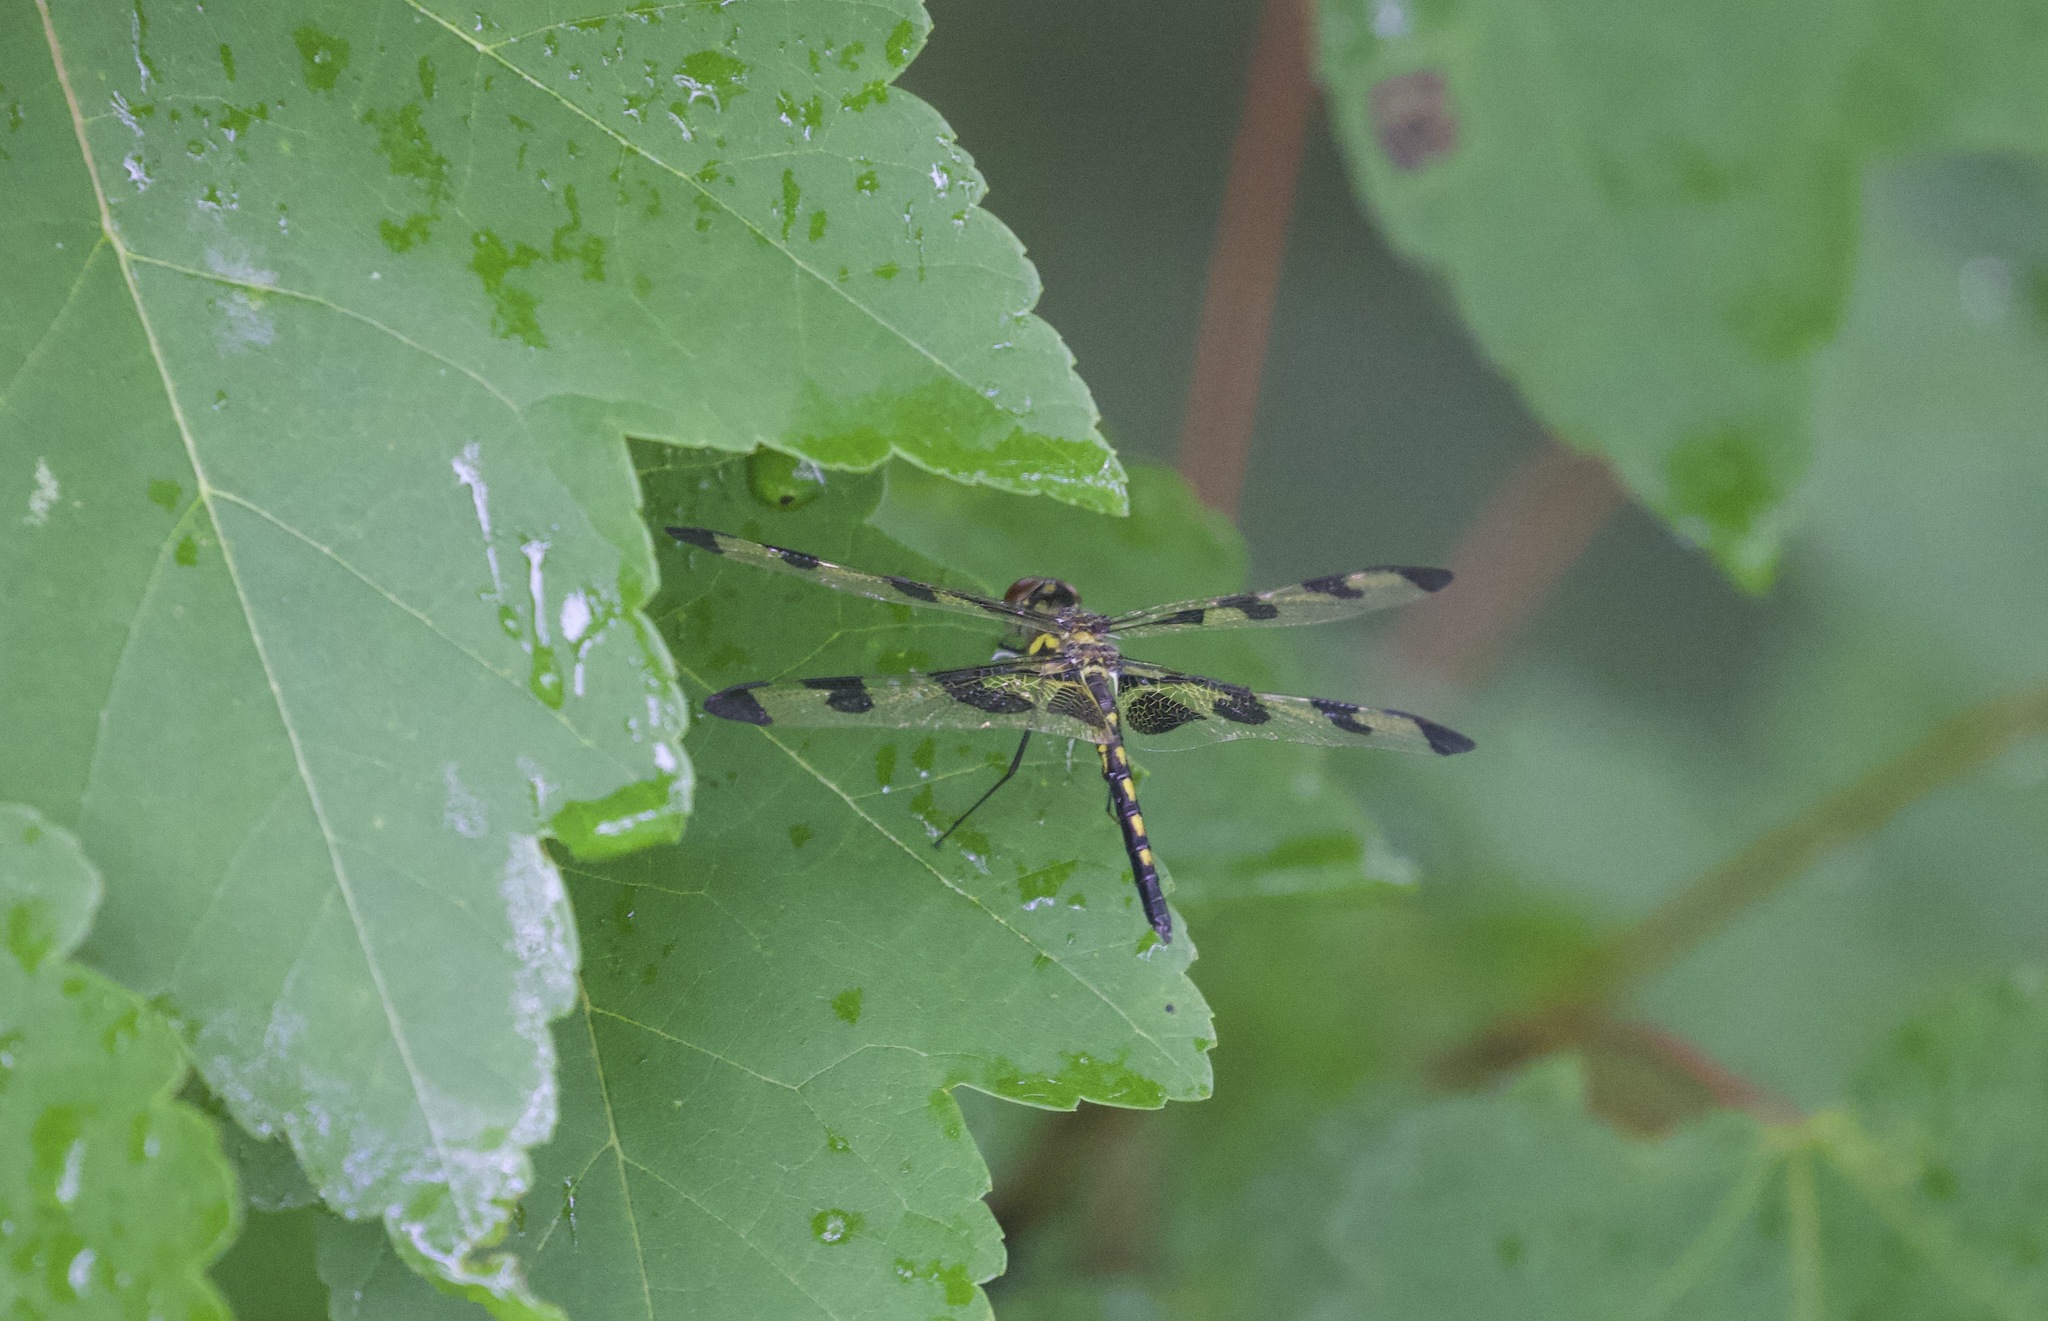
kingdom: Animalia
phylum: Arthropoda
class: Insecta
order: Odonata
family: Libellulidae
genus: Celithemis
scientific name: Celithemis fasciata
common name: Banded pennant
